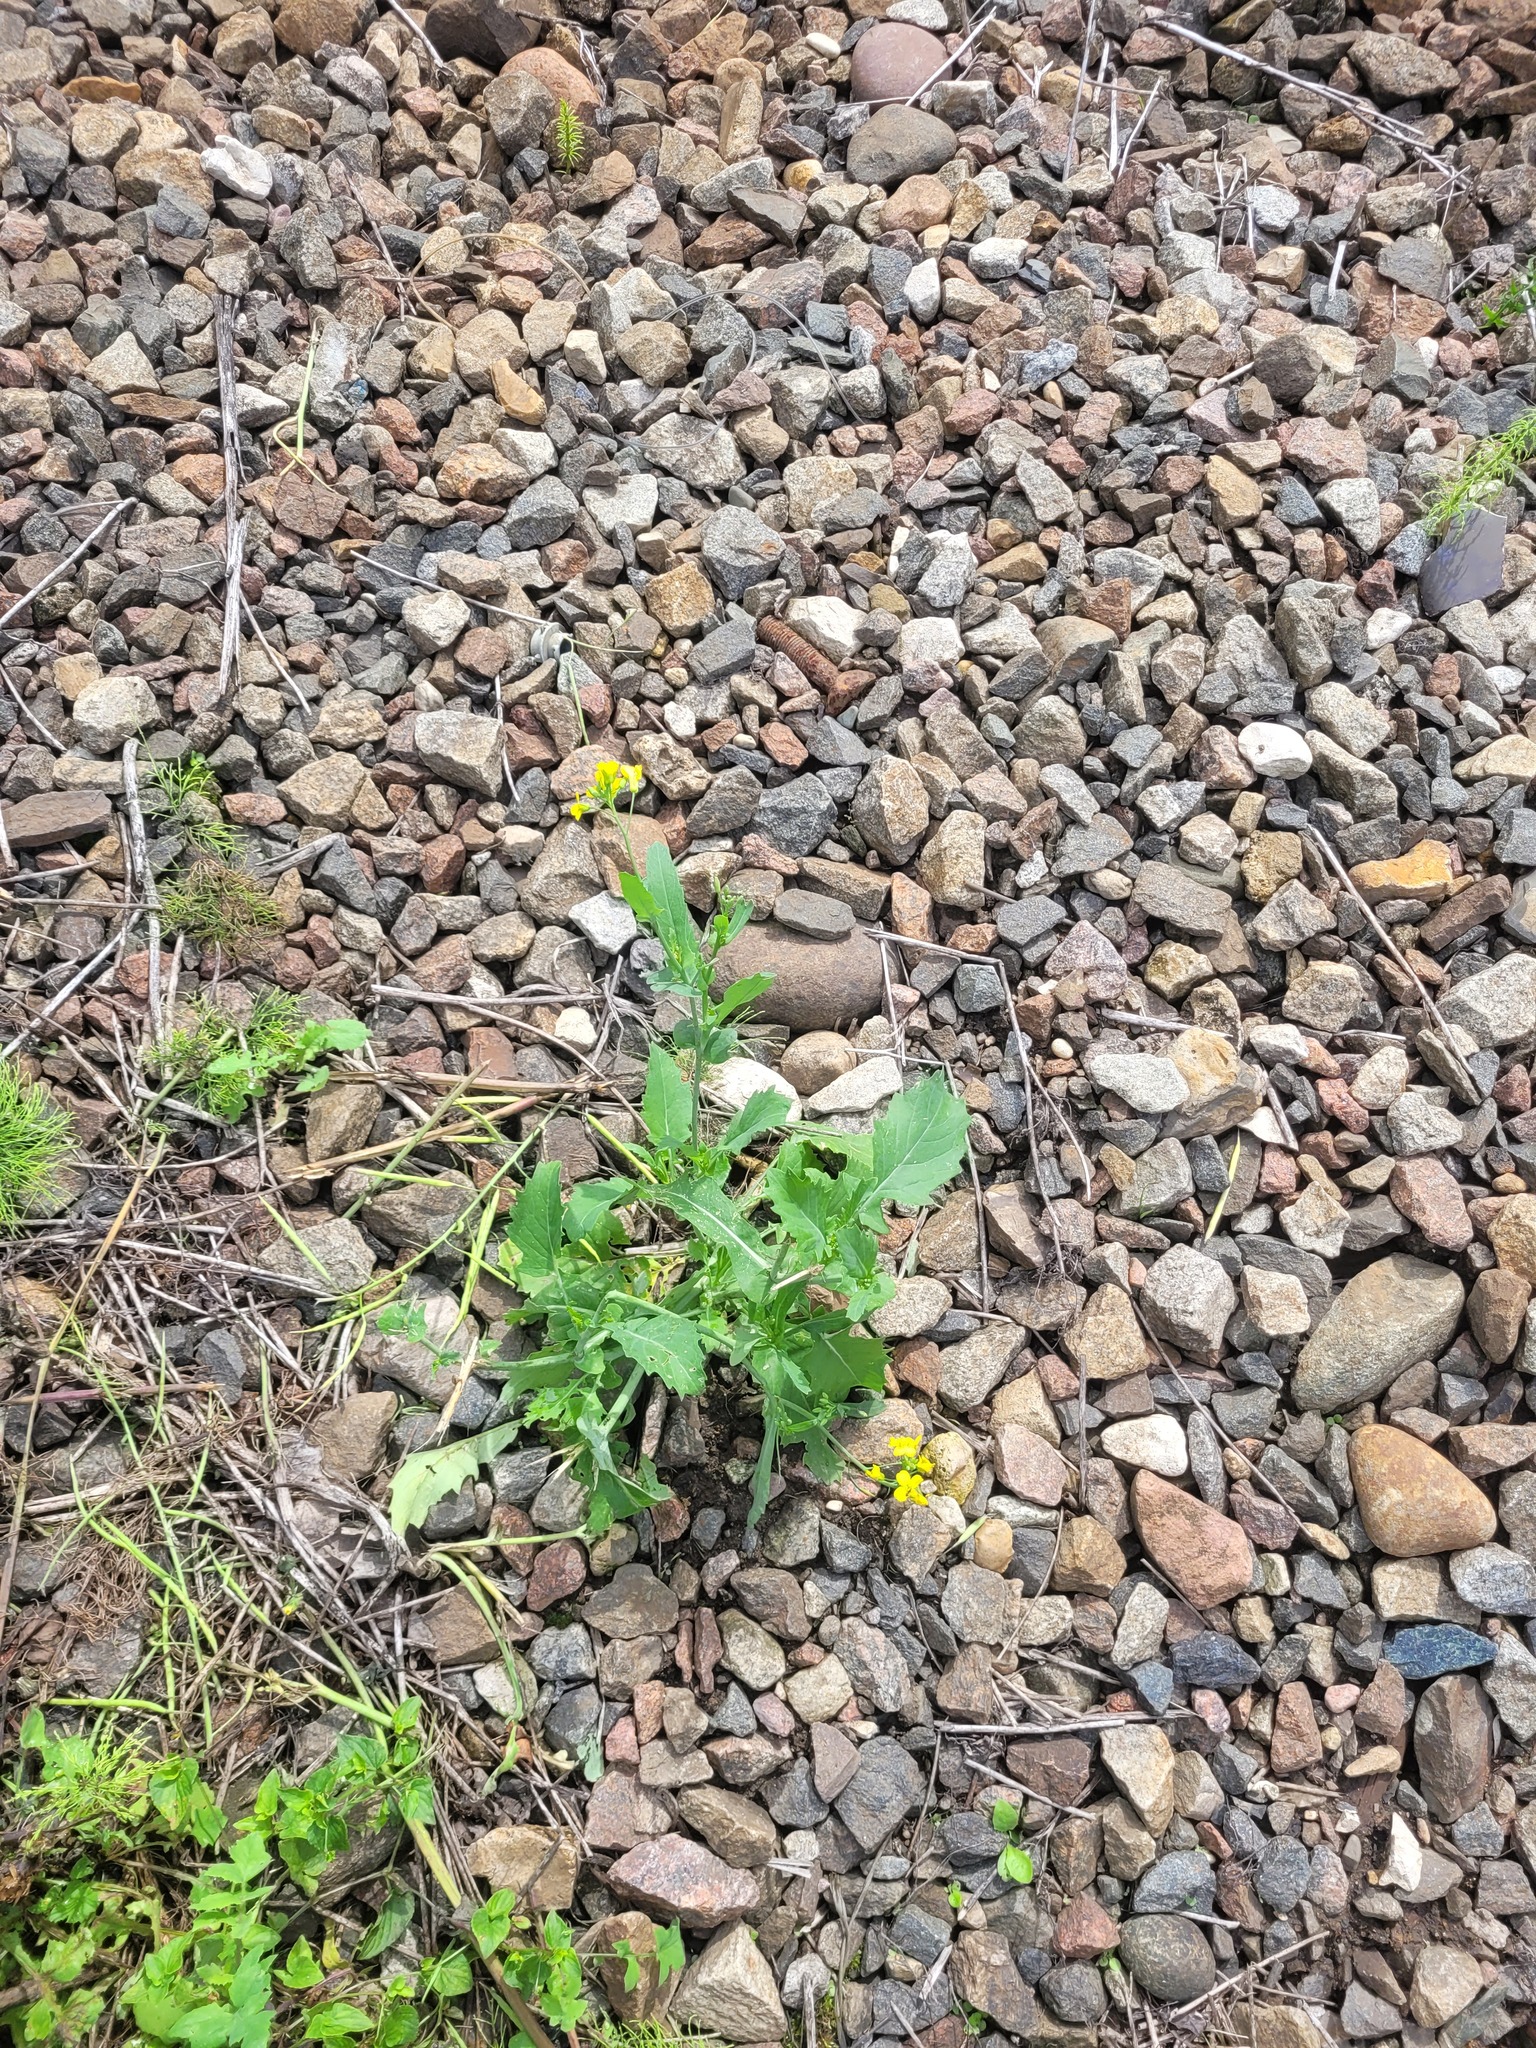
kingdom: Plantae
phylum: Tracheophyta
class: Magnoliopsida
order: Brassicales
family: Brassicaceae
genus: Brassica
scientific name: Brassica napus
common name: Rape
